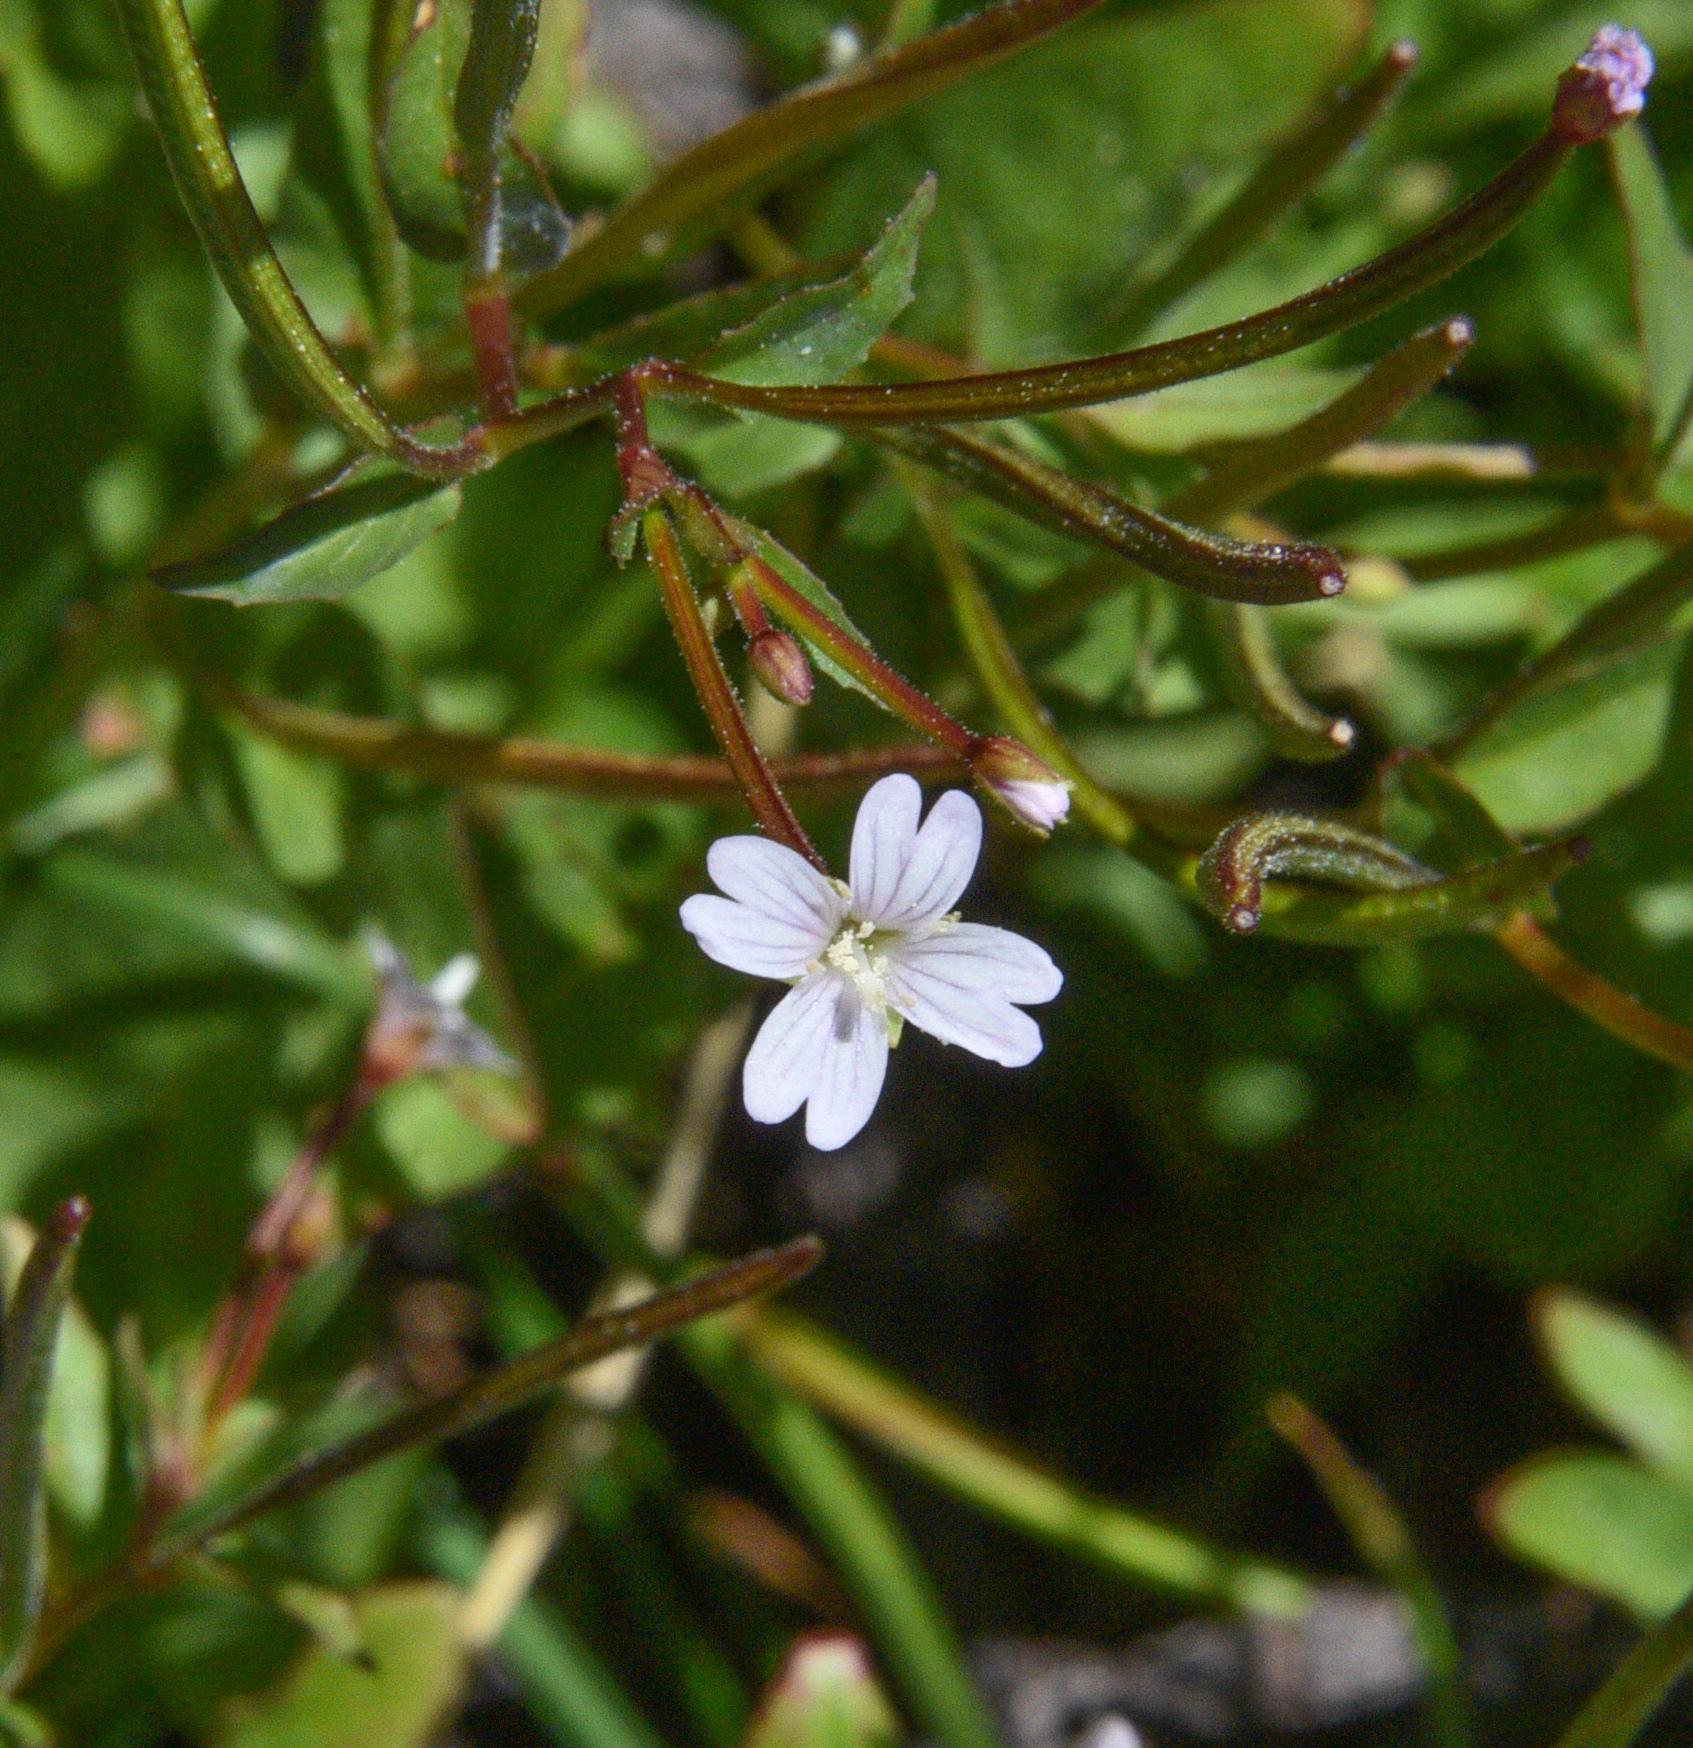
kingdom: Plantae
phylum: Tracheophyta
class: Magnoliopsida
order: Myrtales
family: Onagraceae
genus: Epilobium
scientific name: Epilobium ciliatum
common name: American willowherb
